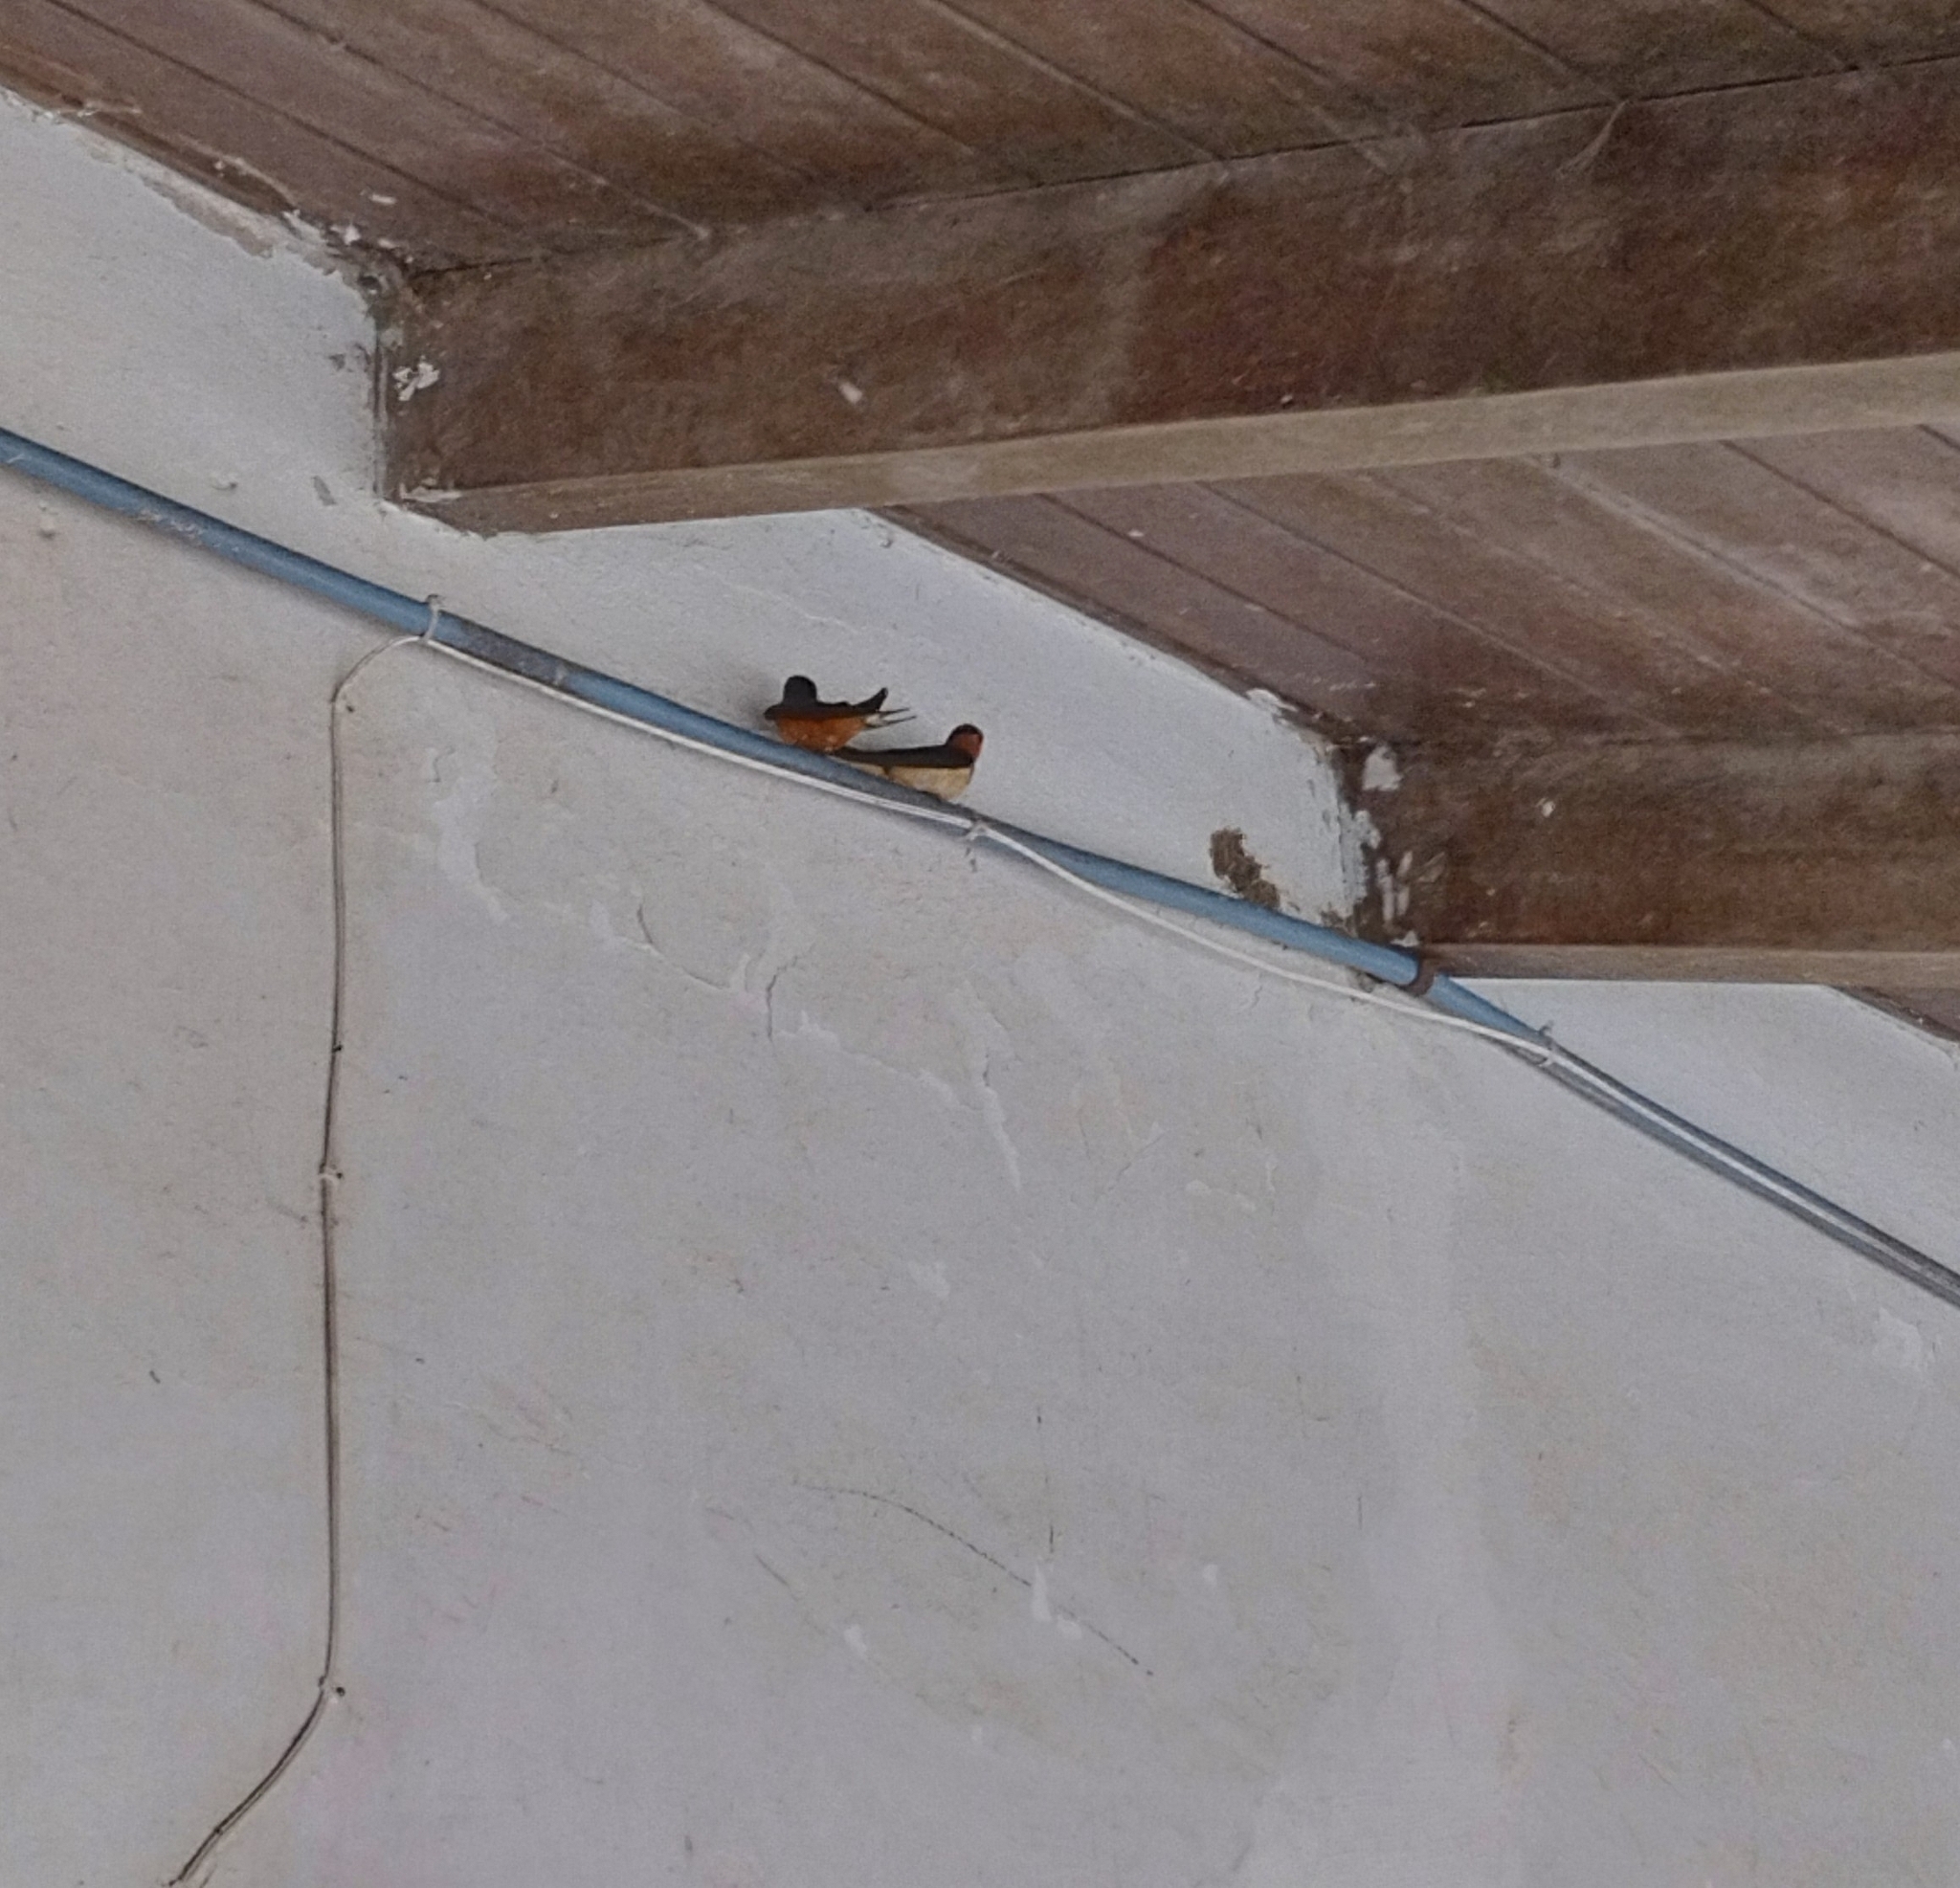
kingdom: Animalia
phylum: Chordata
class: Aves
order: Passeriformes
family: Hirundinidae
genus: Hirundo
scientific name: Hirundo rustica
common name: Barn swallow
